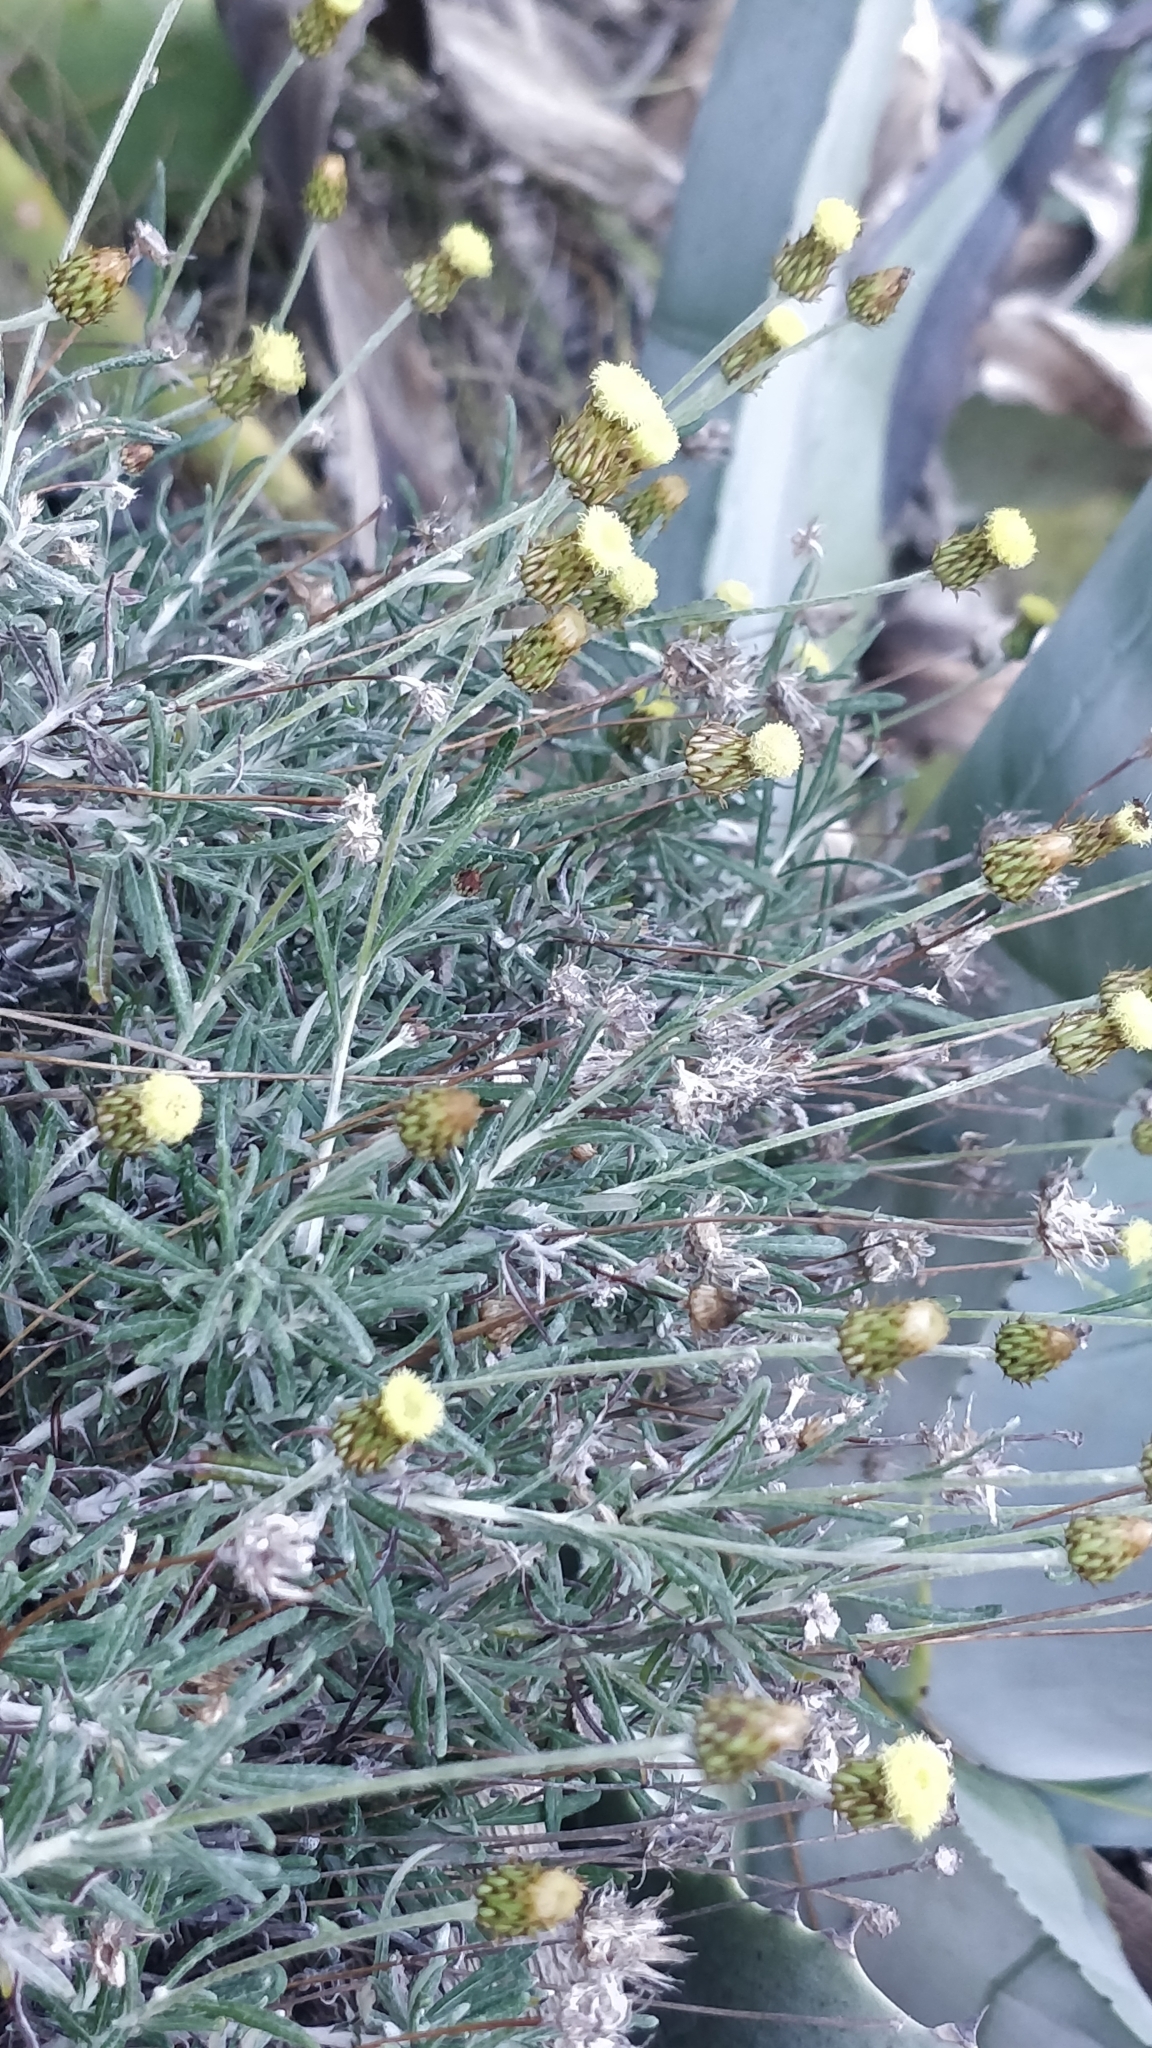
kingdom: Plantae
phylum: Tracheophyta
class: Magnoliopsida
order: Asterales
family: Asteraceae
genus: Phagnalon
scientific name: Phagnalon saxatile
